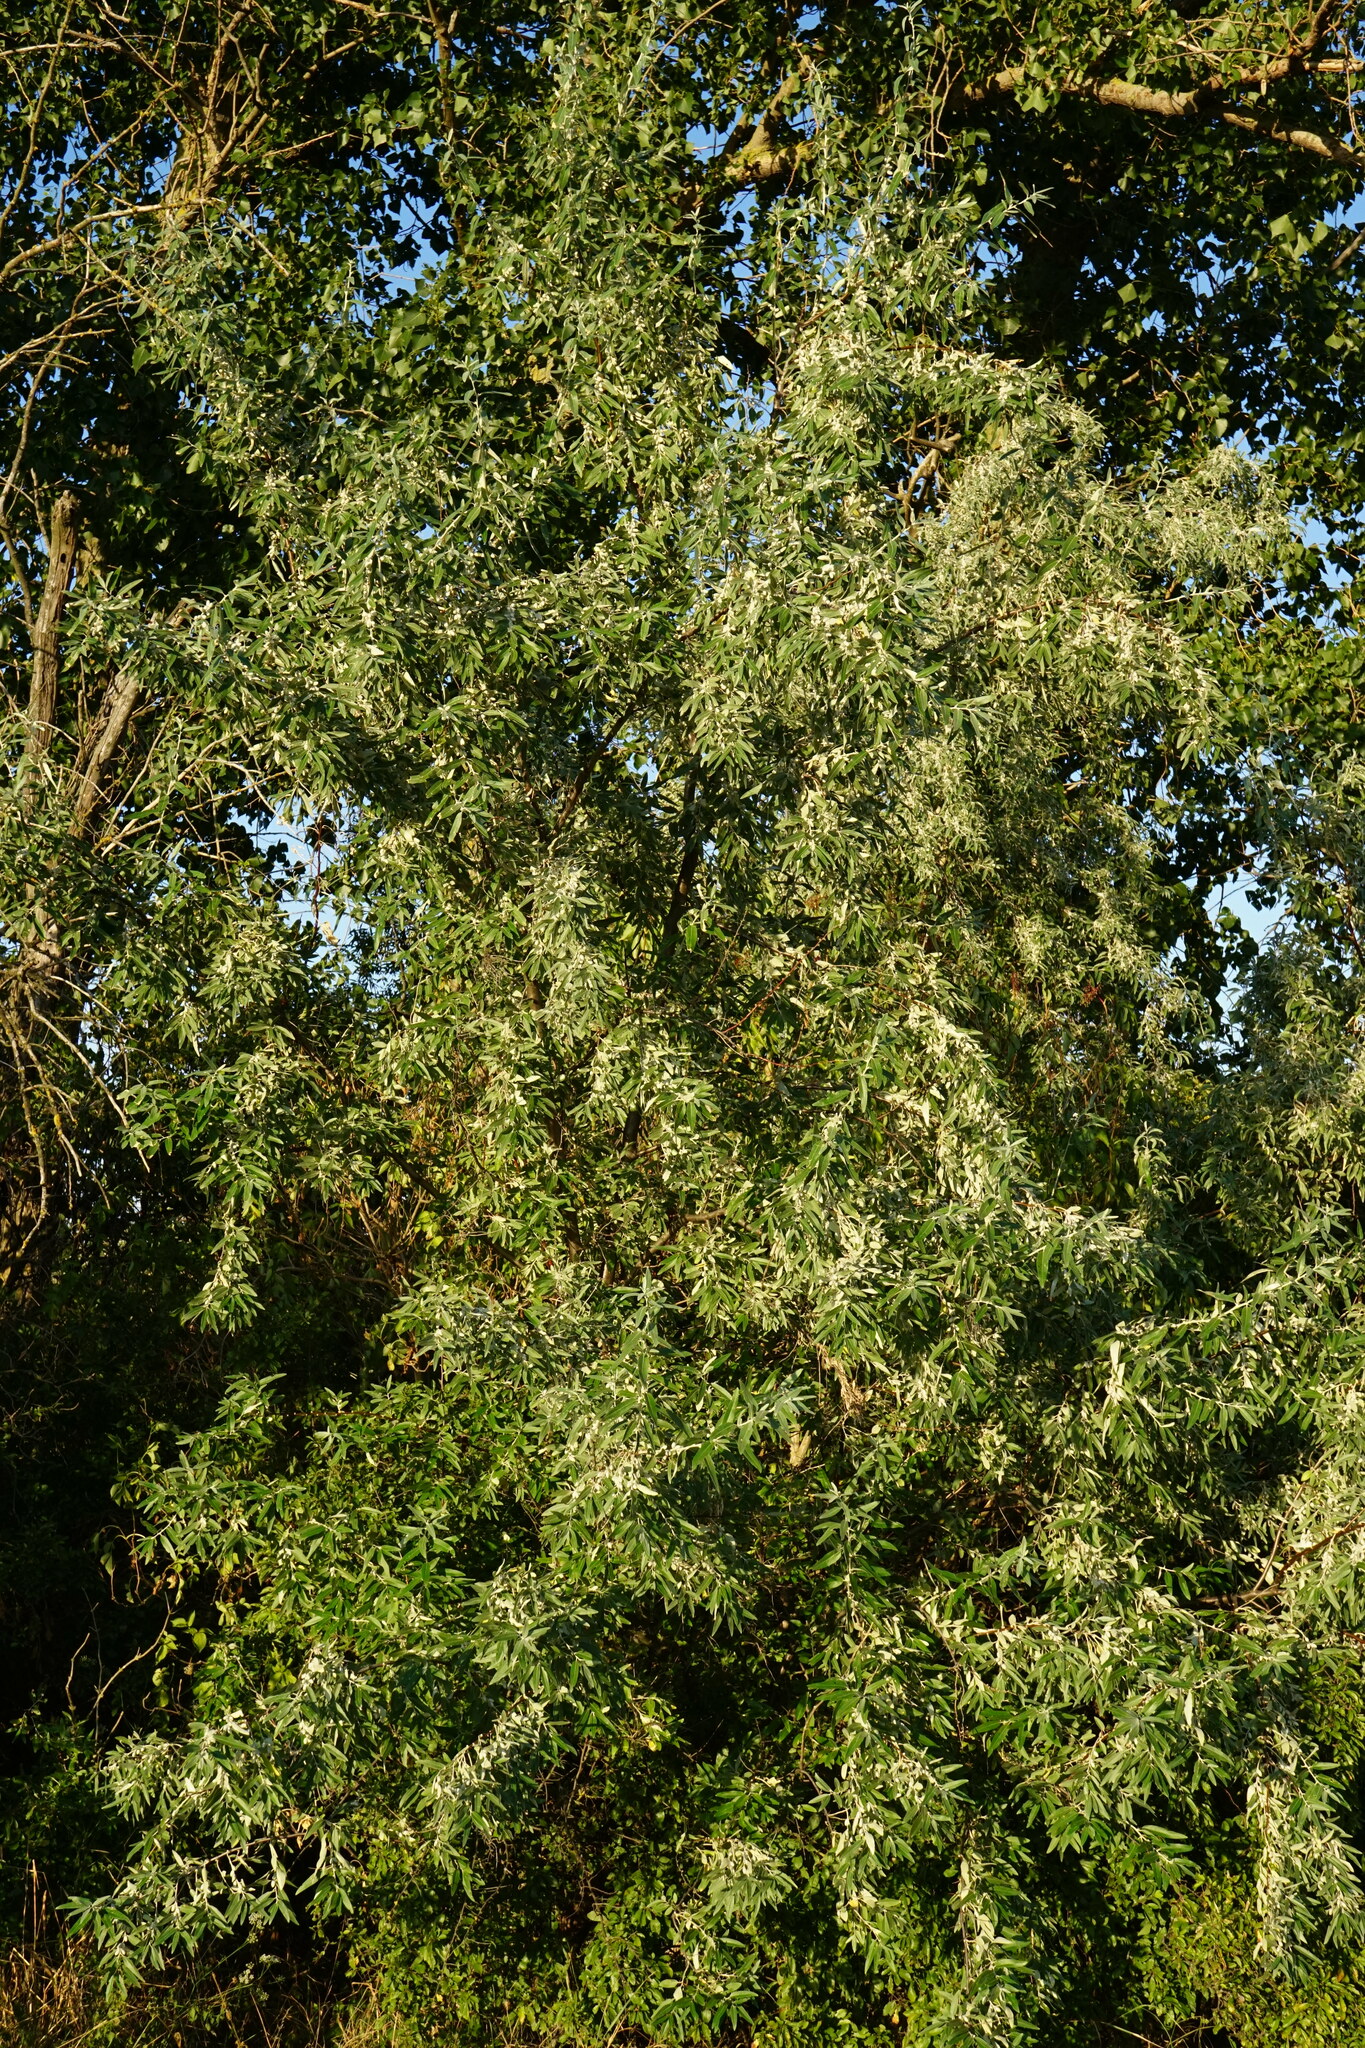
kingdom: Plantae
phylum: Tracheophyta
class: Magnoliopsida
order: Rosales
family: Elaeagnaceae
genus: Elaeagnus
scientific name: Elaeagnus angustifolia
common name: Russian olive
